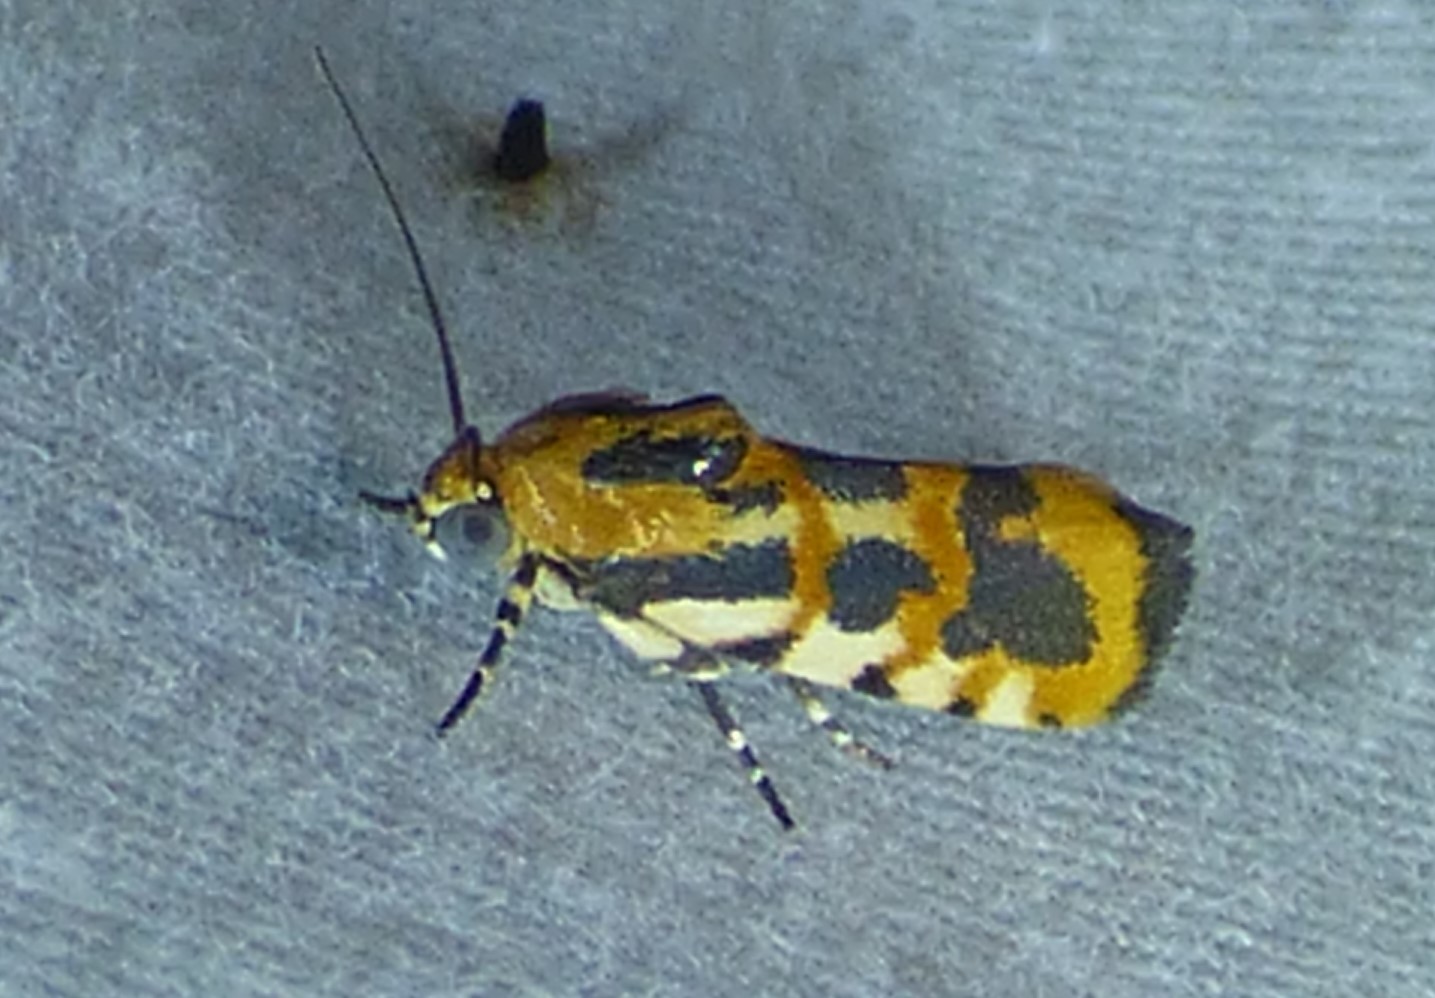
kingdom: Animalia
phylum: Arthropoda
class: Insecta
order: Lepidoptera
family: Noctuidae
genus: Acontia
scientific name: Acontia leo
